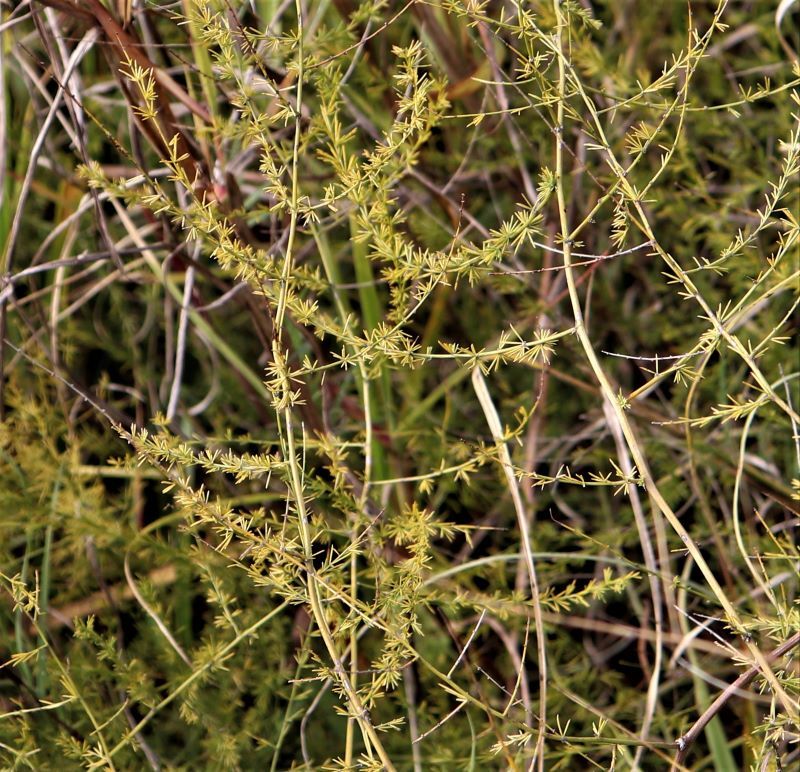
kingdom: Plantae
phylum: Tracheophyta
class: Liliopsida
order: Asparagales
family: Asparagaceae
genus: Asparagus
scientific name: Asparagus africanus
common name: Asparagus-fern
